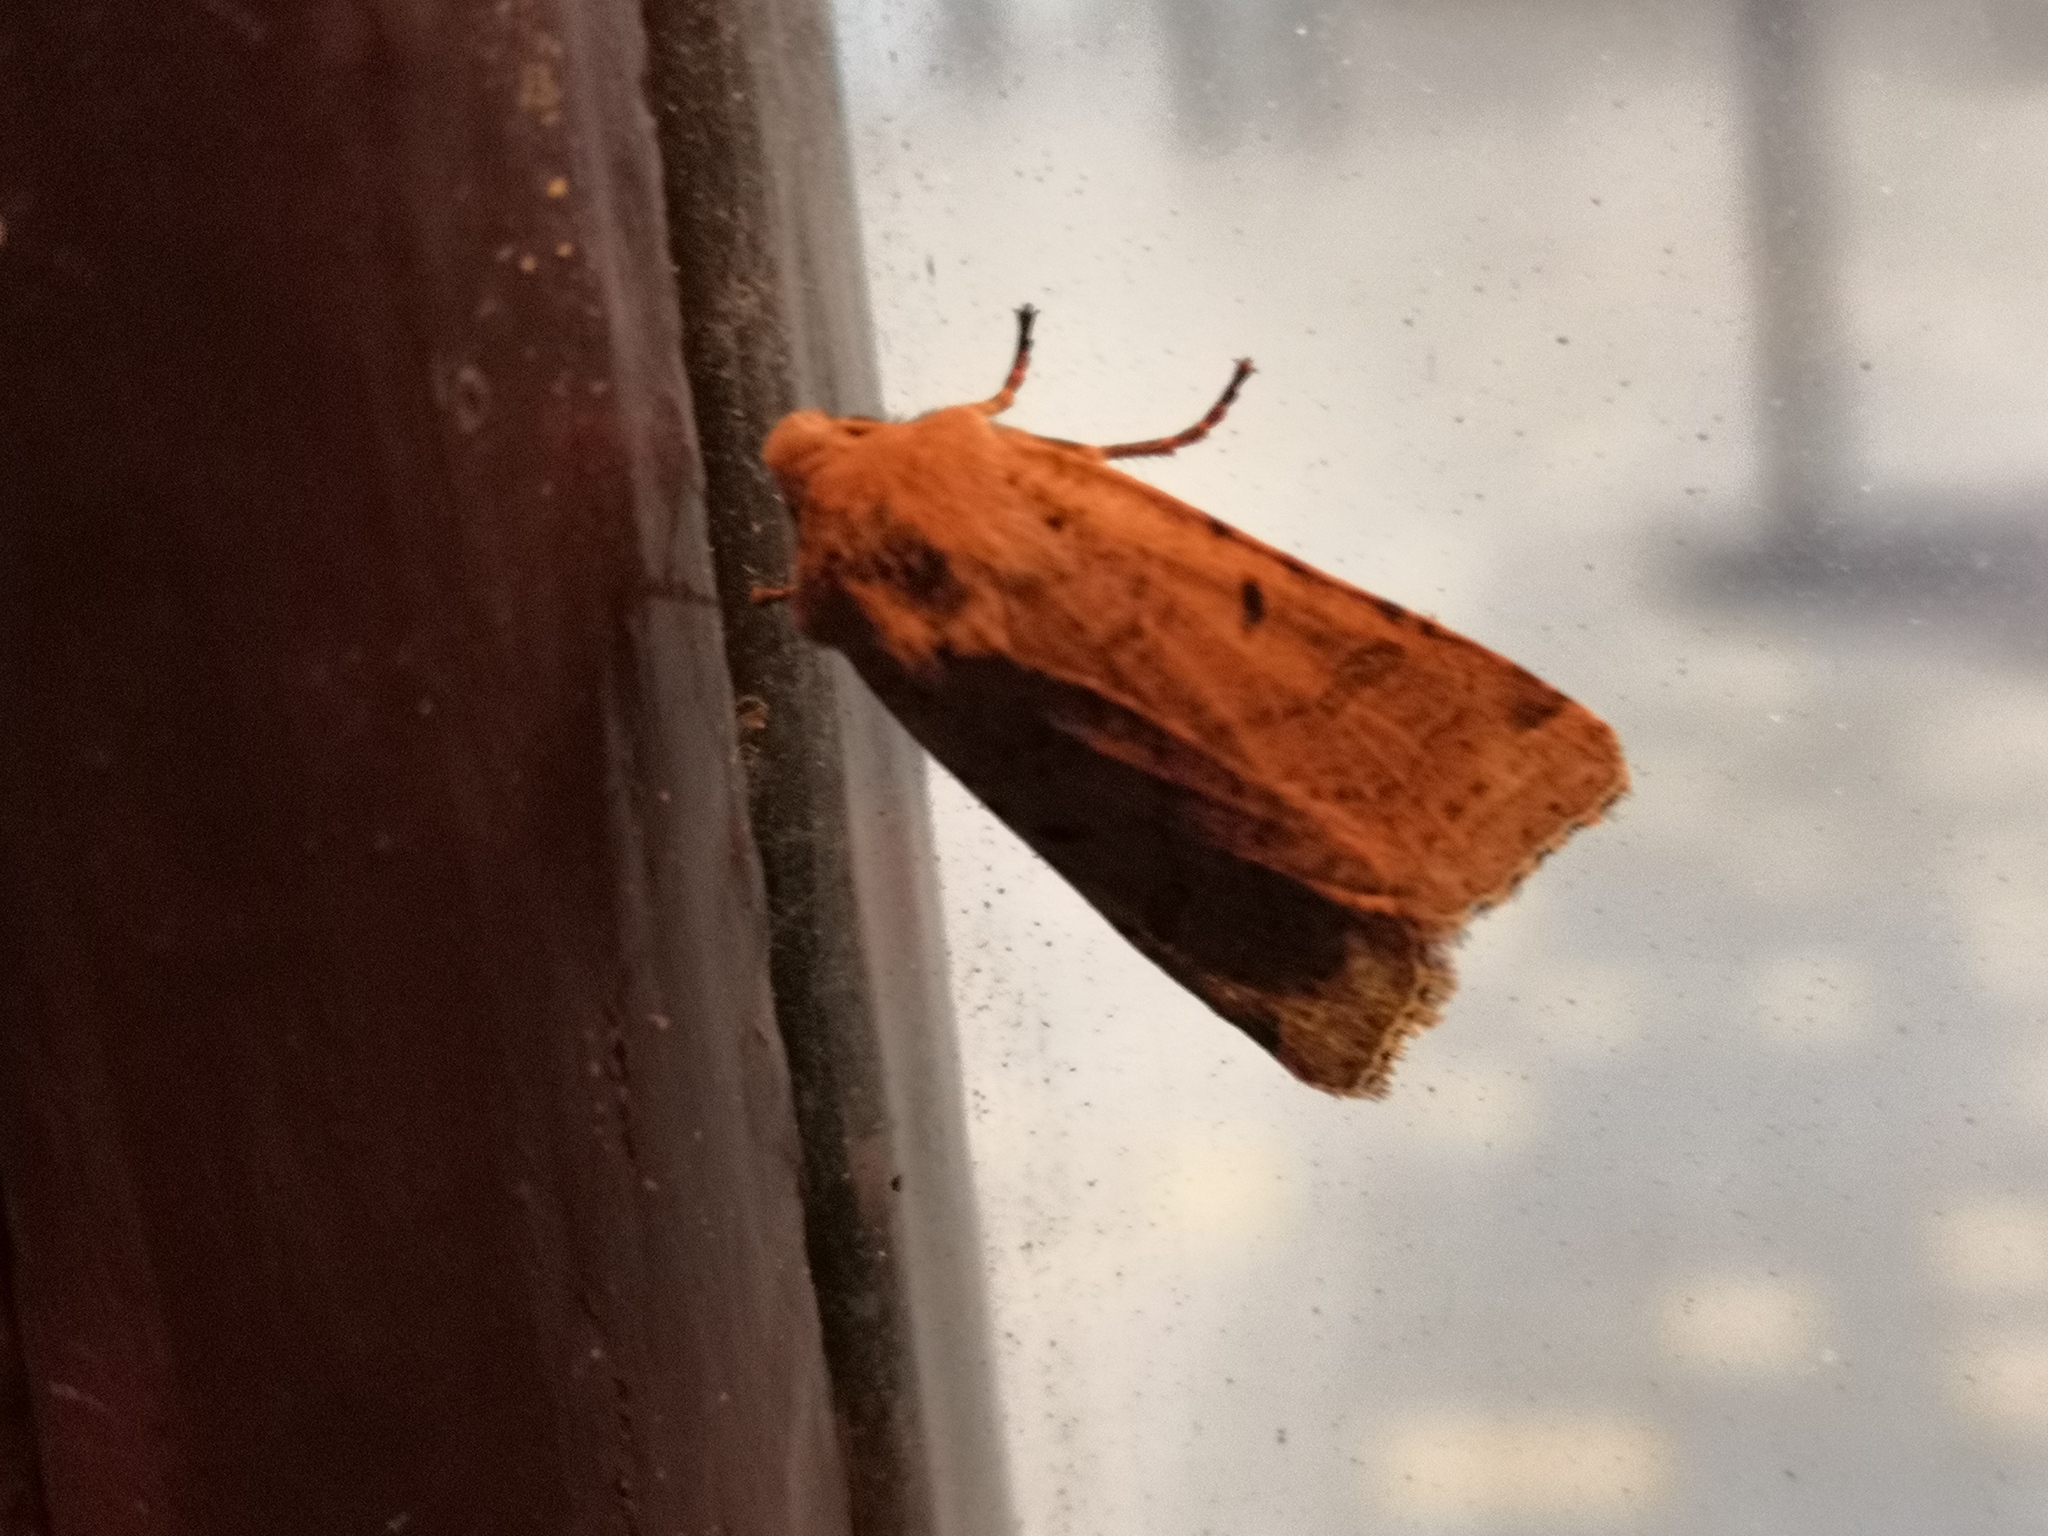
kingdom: Animalia
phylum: Arthropoda
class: Insecta
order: Lepidoptera
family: Noctuidae
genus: Agrochola
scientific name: Agrochola lychnidis
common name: Beaded chestnut
